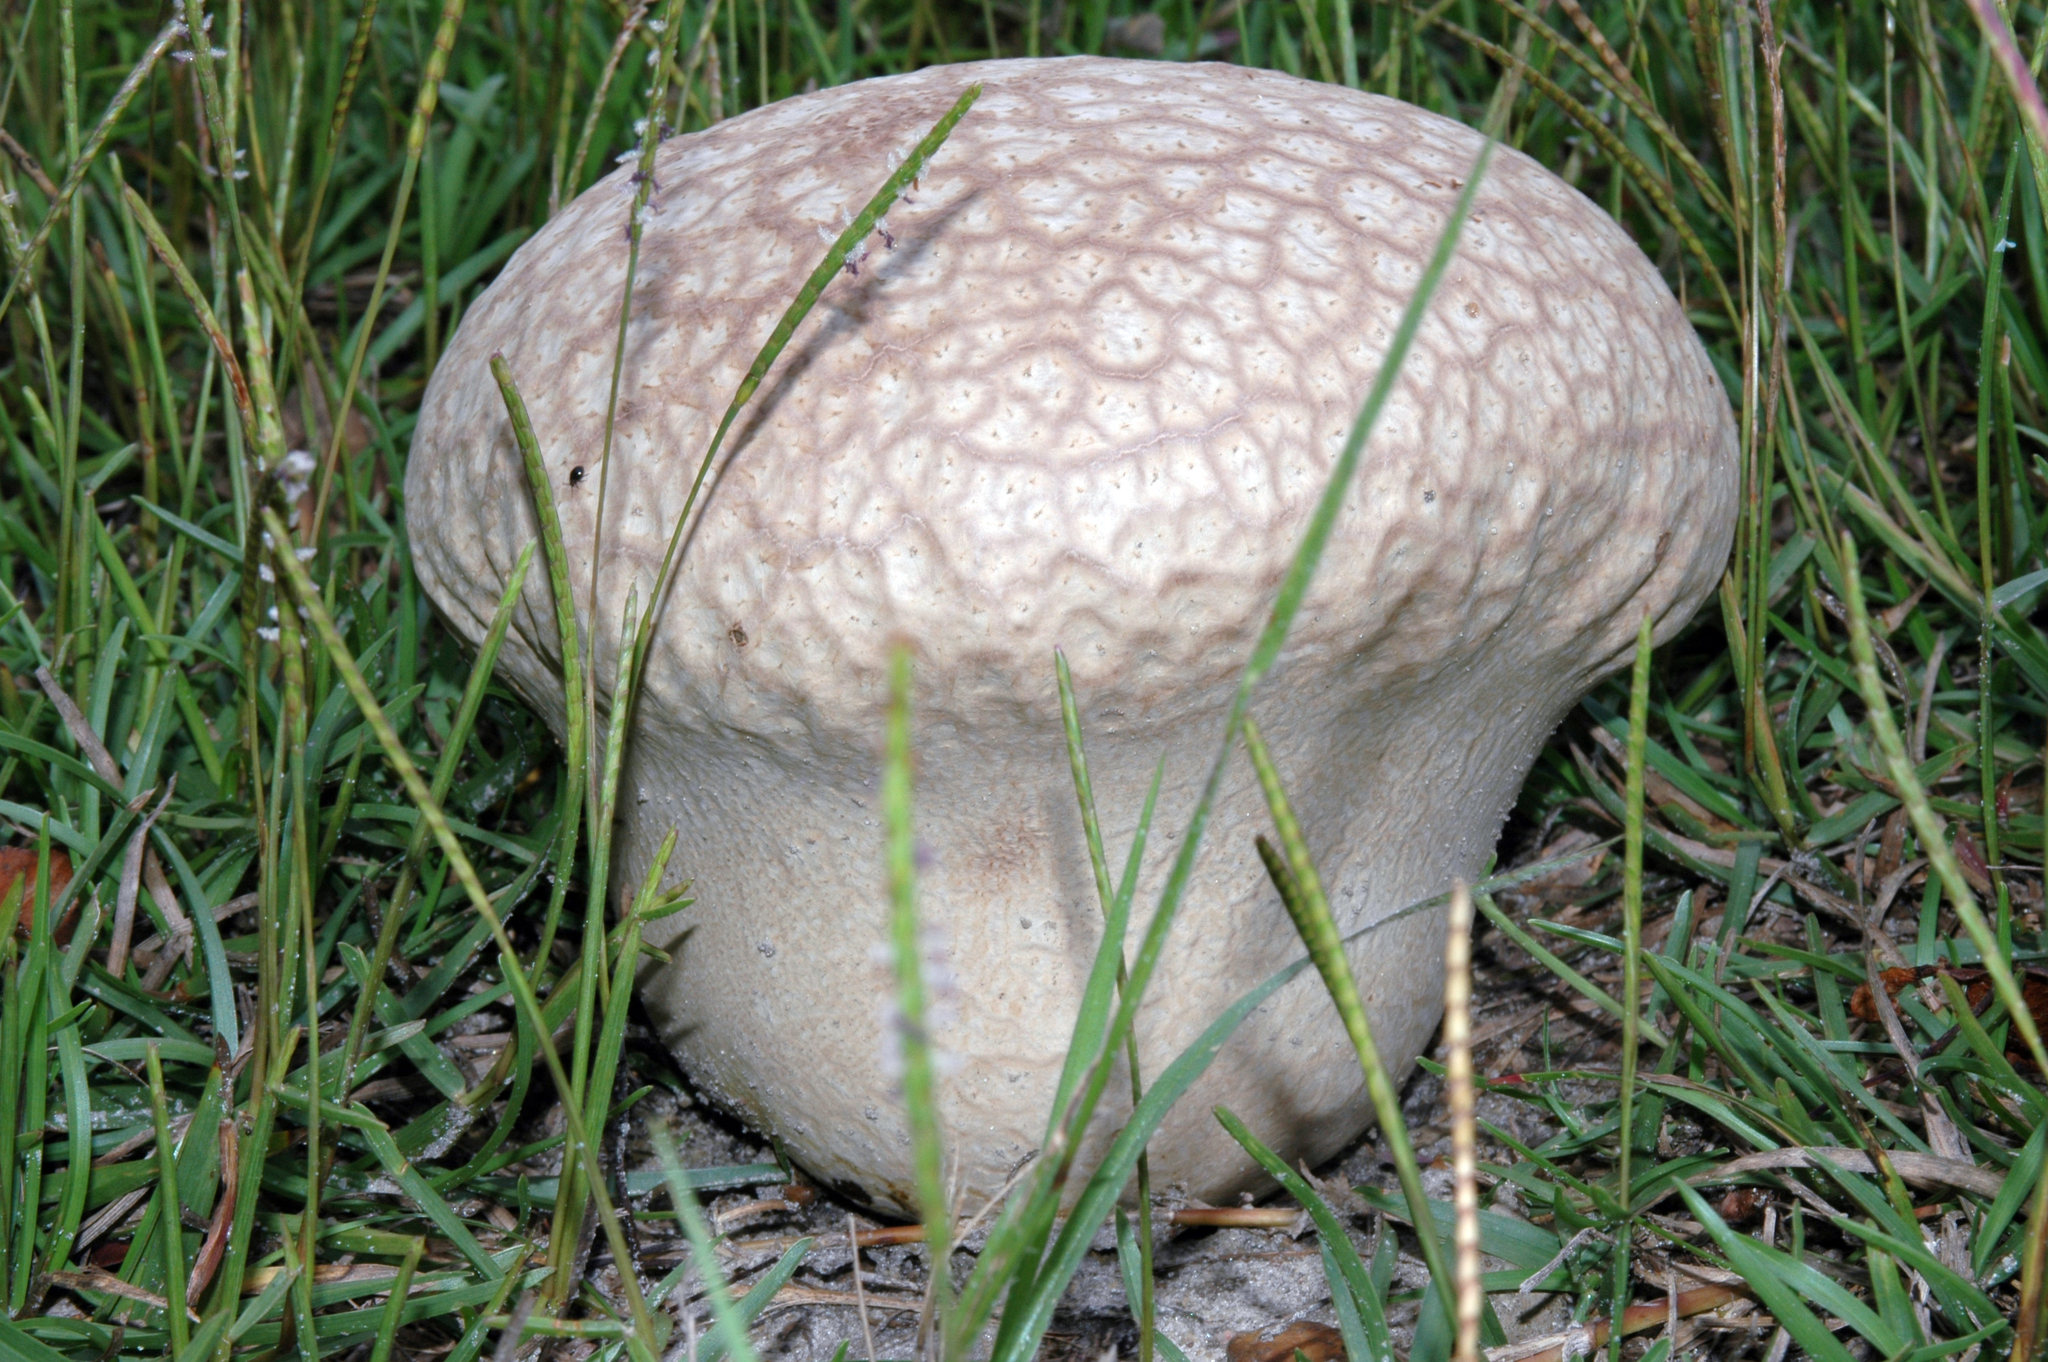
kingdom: Fungi
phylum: Basidiomycota
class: Agaricomycetes
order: Agaricales
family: Lycoperdaceae
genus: Calvatia
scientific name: Calvatia cyathiformis
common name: Purple-spored puffball
